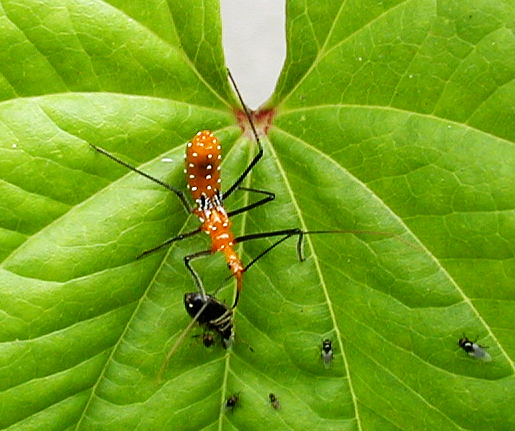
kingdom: Animalia
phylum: Arthropoda
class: Insecta
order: Hemiptera
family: Reduviidae
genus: Zelus
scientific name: Zelus longipes
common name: Milkweed assassin bug
